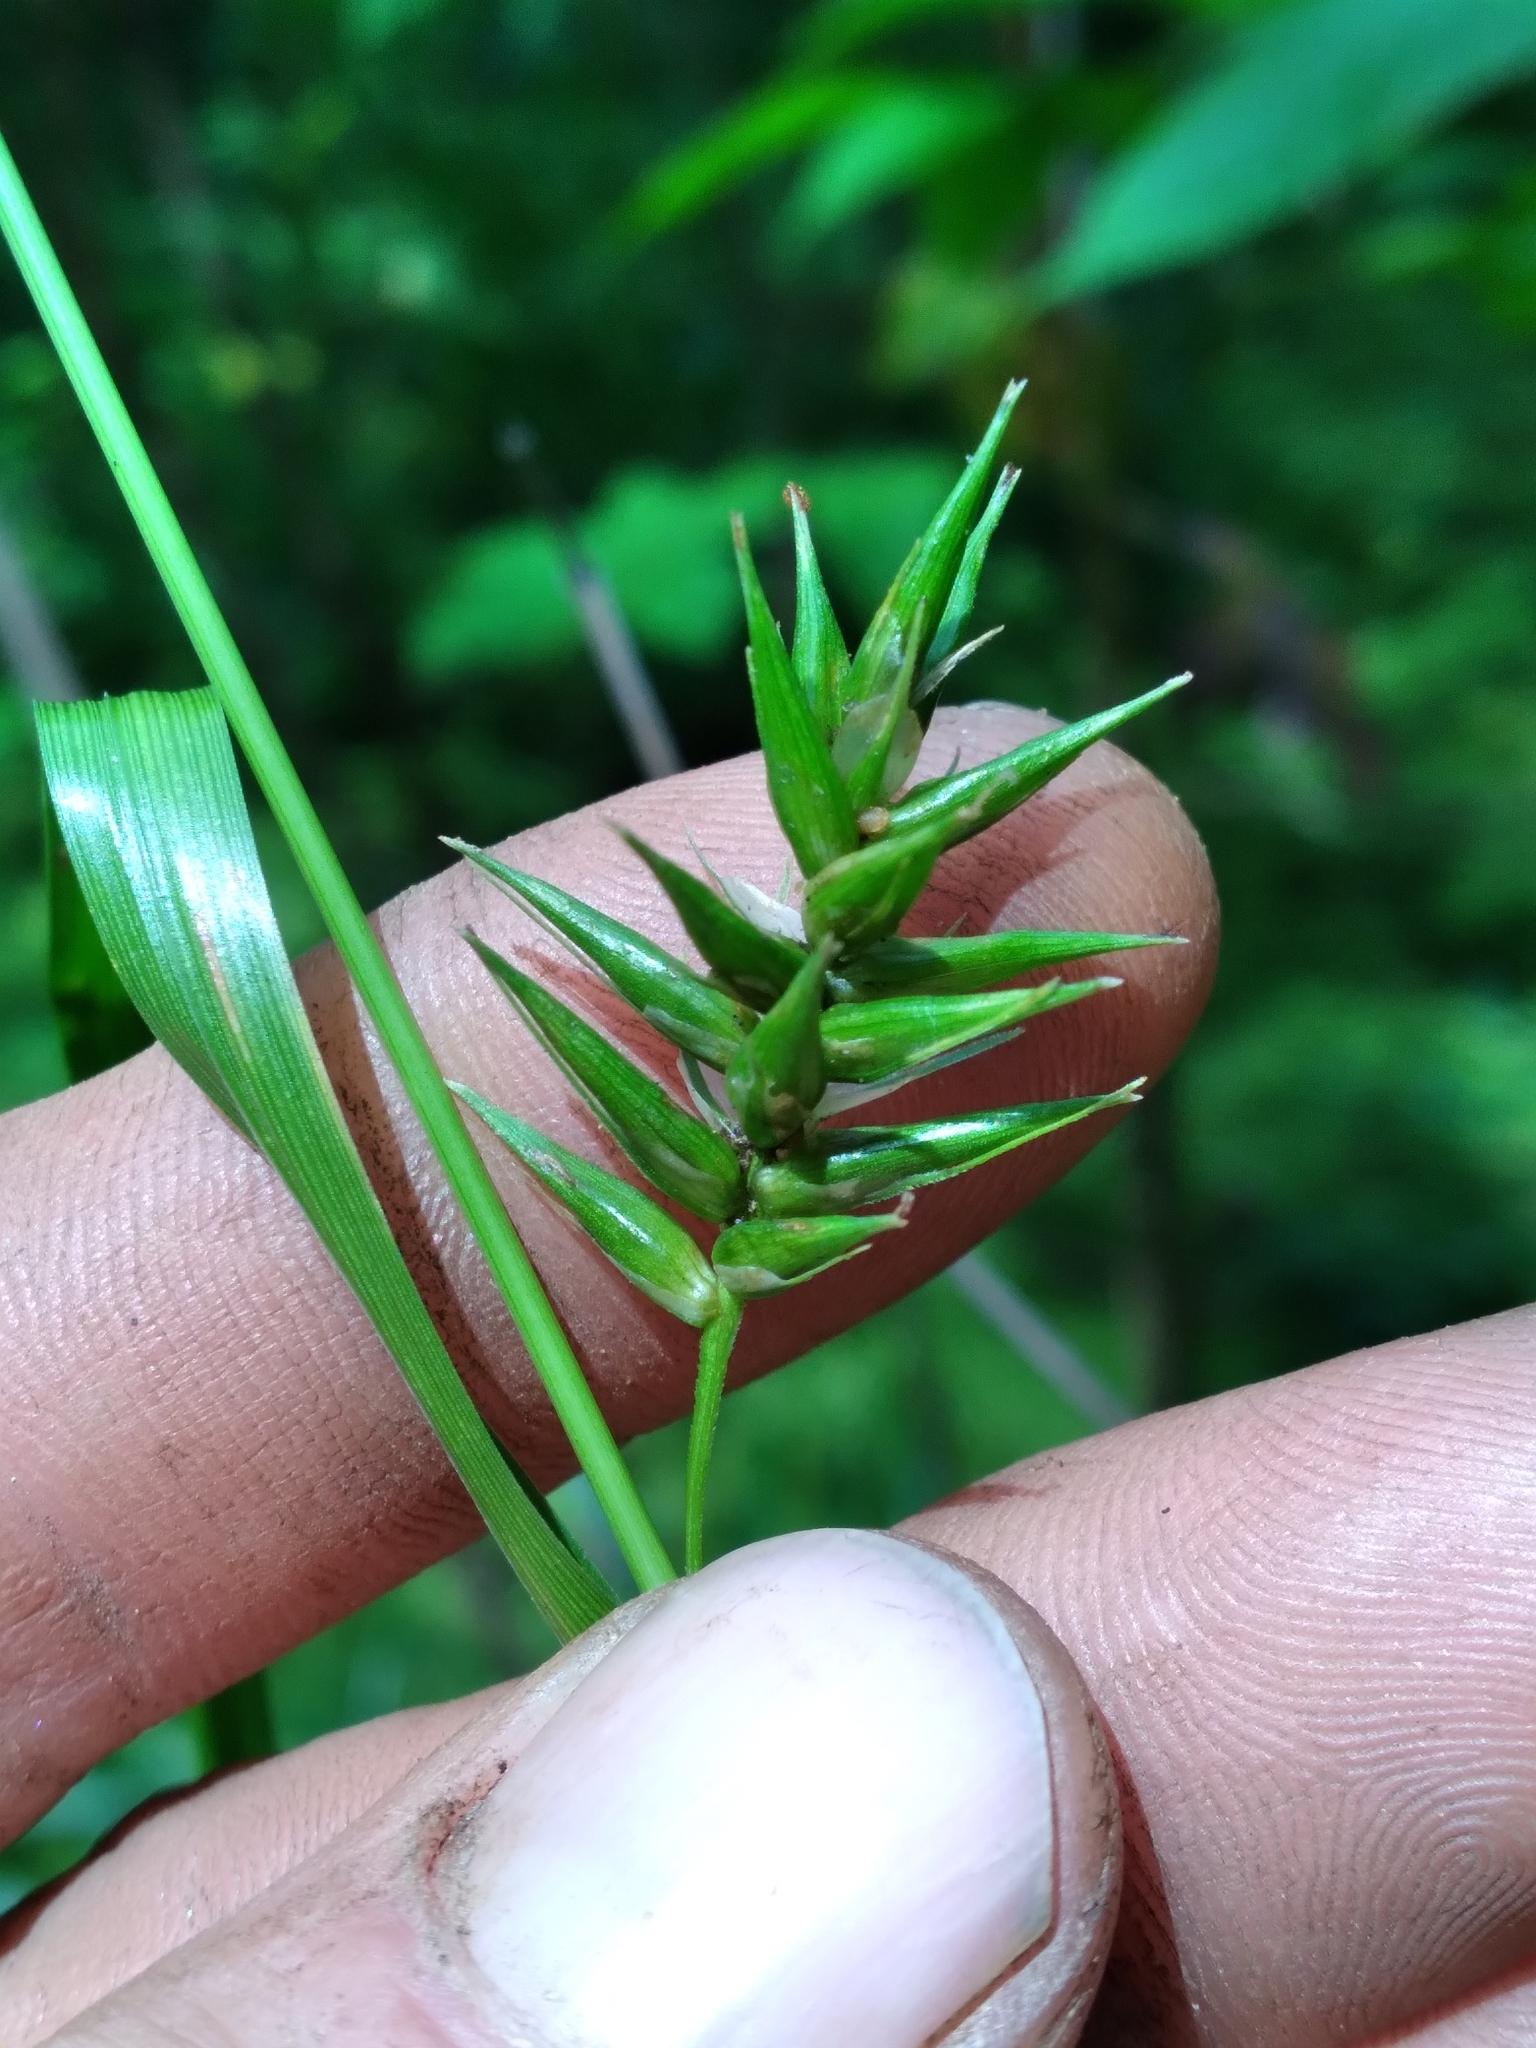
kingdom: Plantae
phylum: Tracheophyta
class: Liliopsida
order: Poales
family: Cyperaceae
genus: Carex
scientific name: Carex folliculata
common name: Northern long sedge
